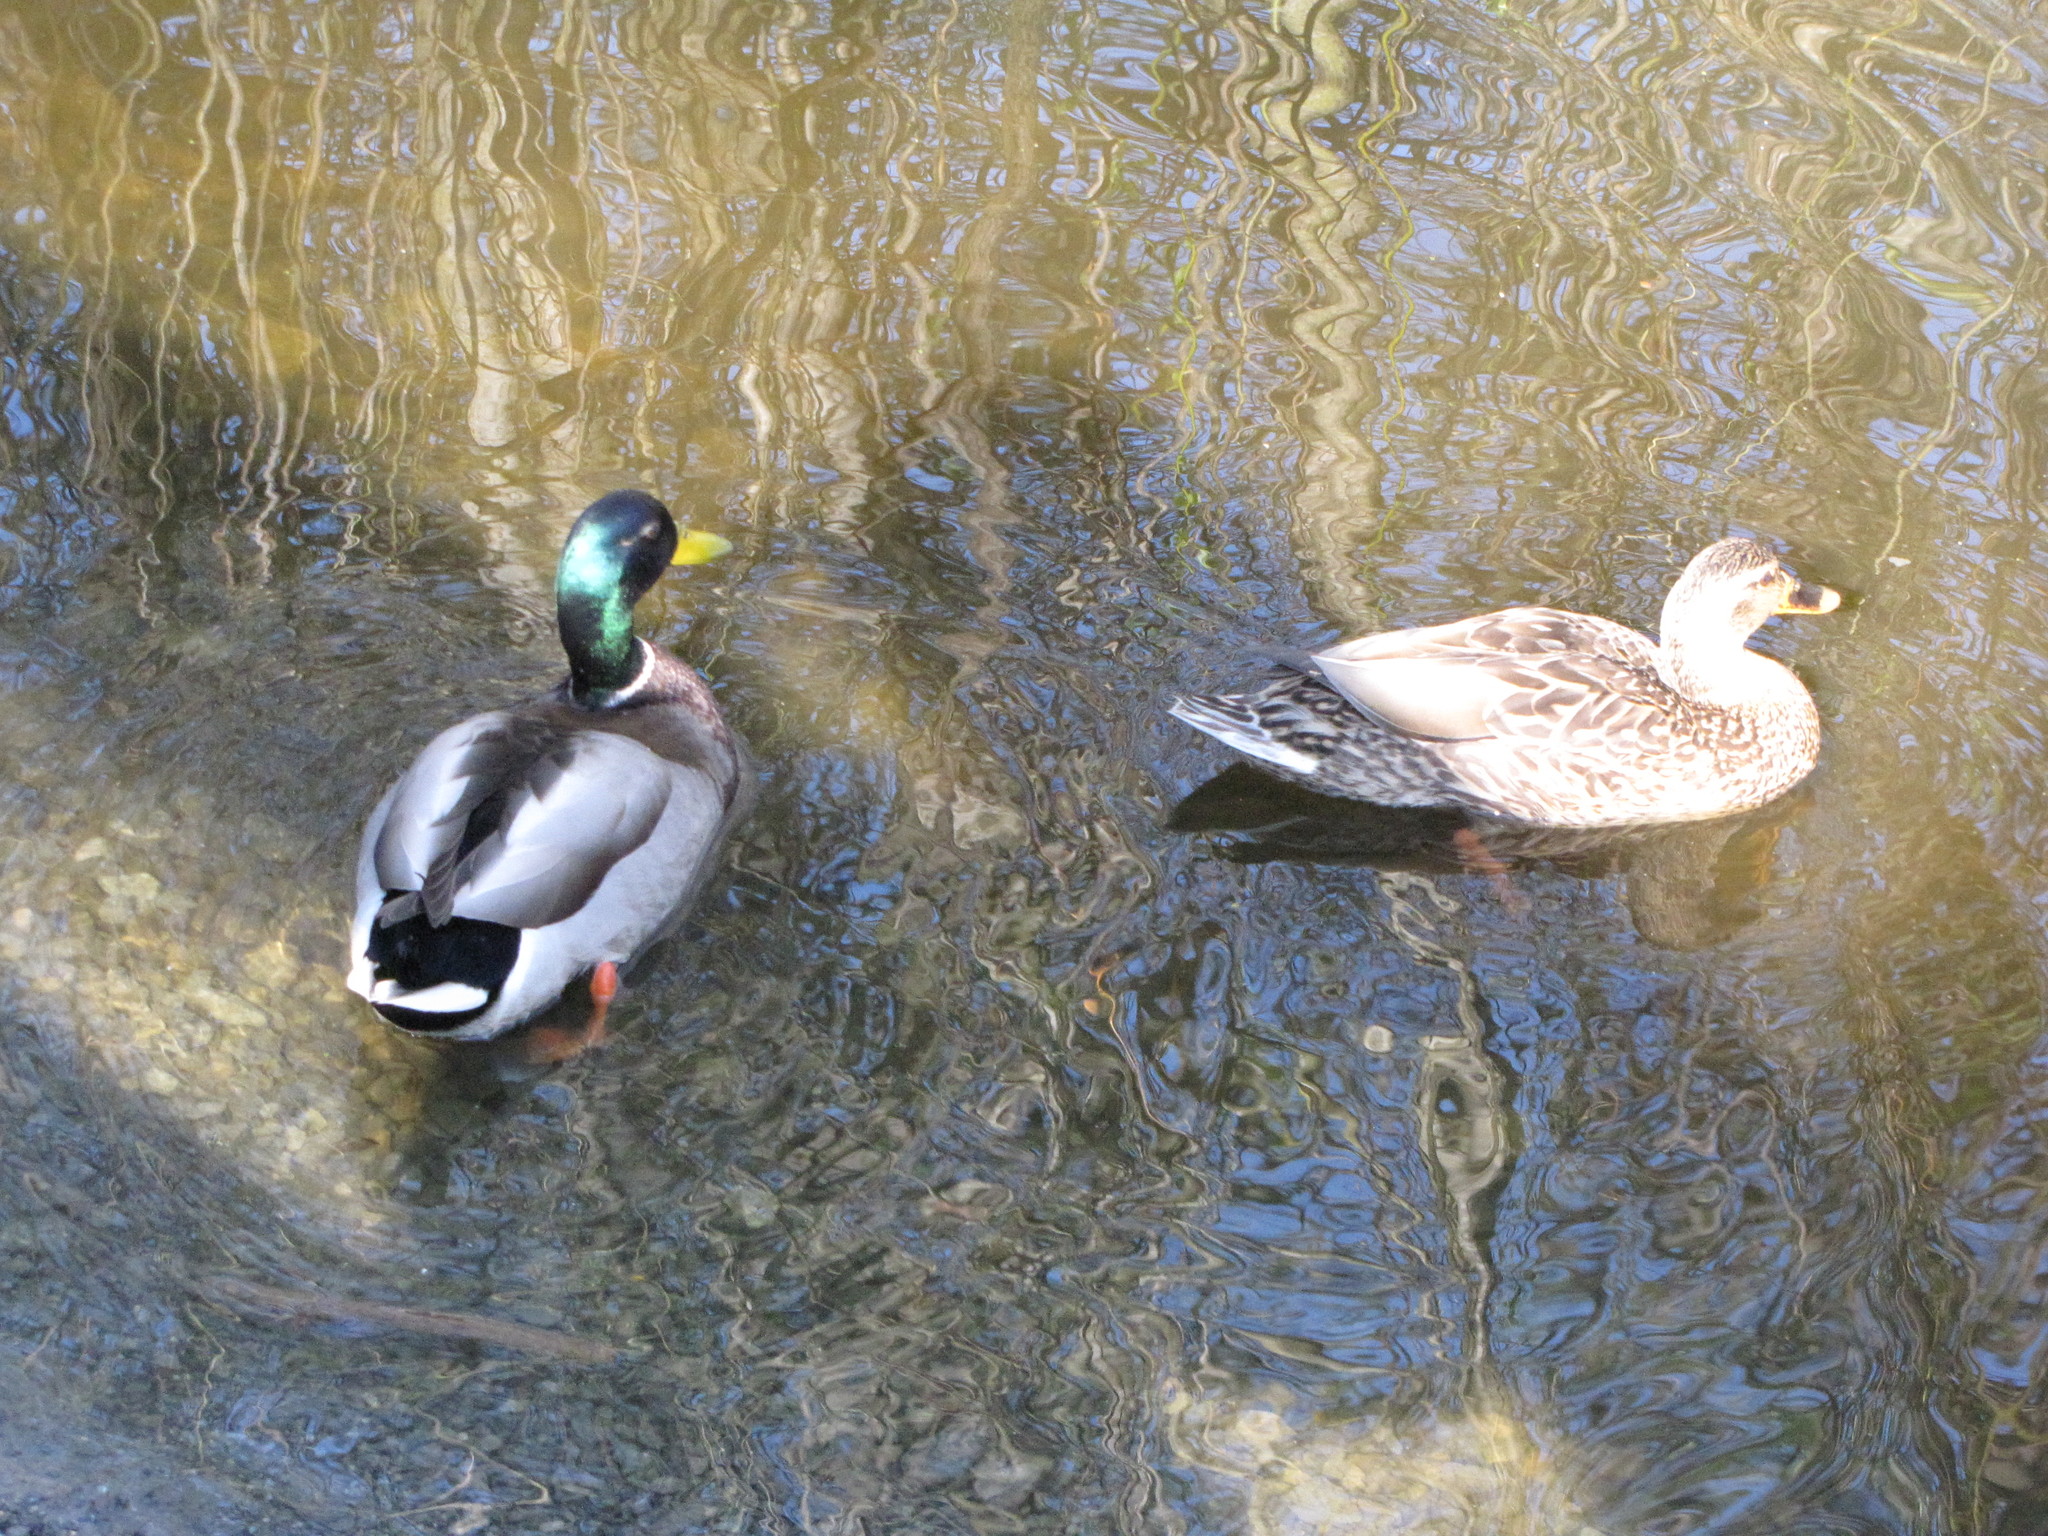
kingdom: Animalia
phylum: Chordata
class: Aves
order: Anseriformes
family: Anatidae
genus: Anas
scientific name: Anas platyrhynchos
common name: Mallard
